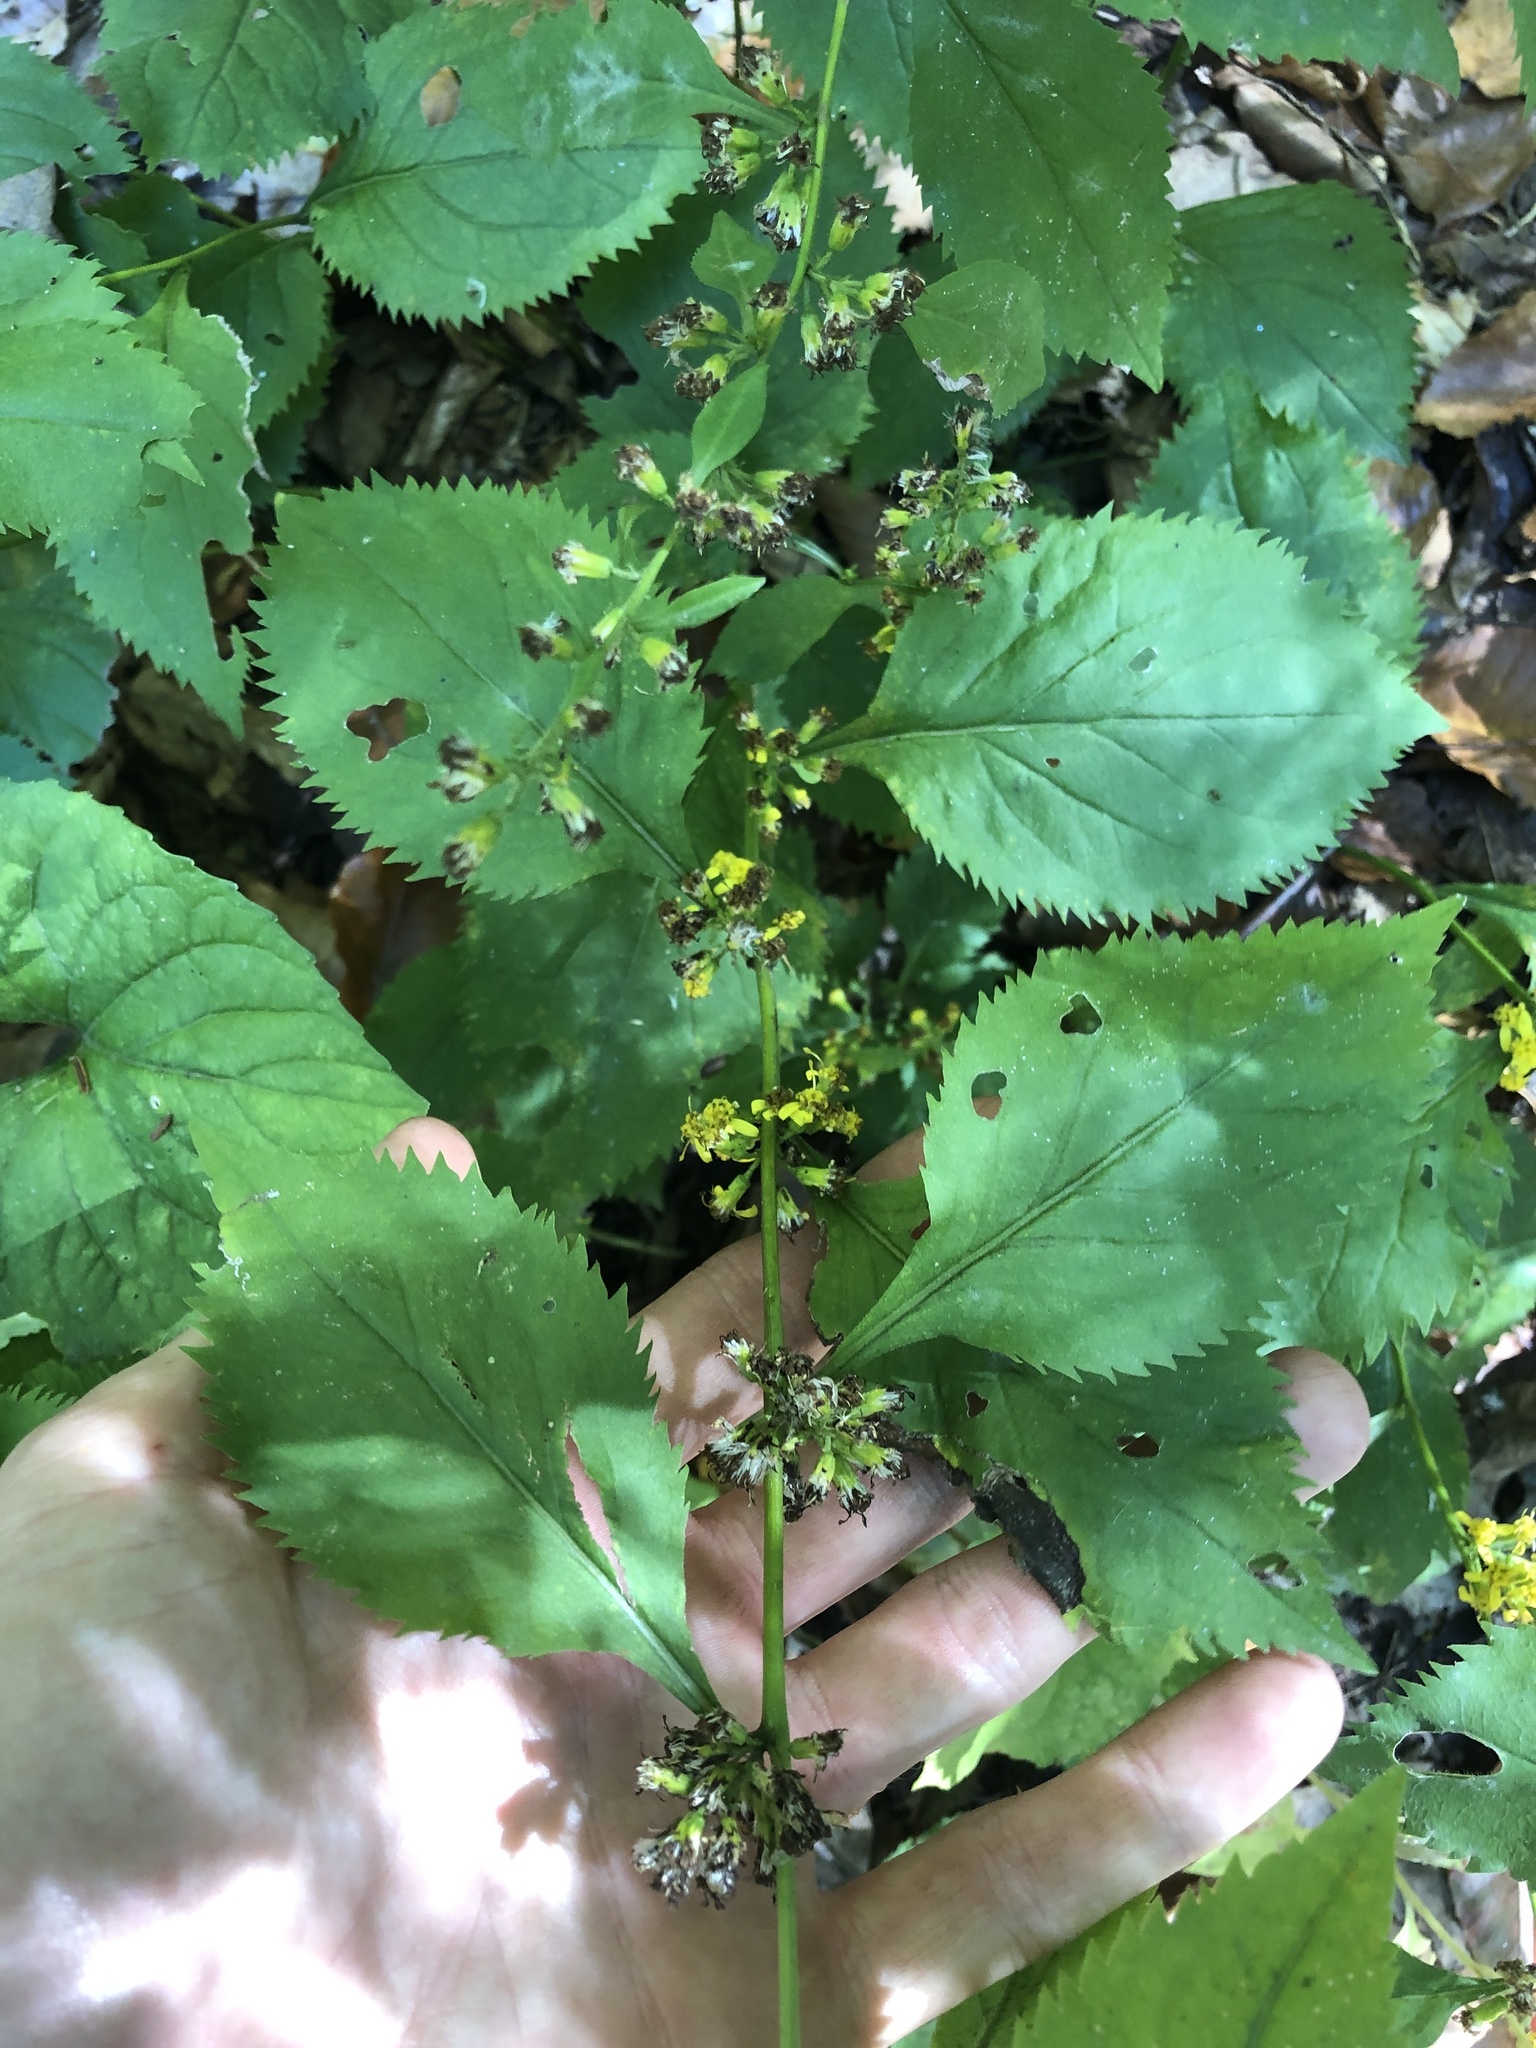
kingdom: Plantae
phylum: Tracheophyta
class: Magnoliopsida
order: Asterales
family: Asteraceae
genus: Solidago
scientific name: Solidago flexicaulis
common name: Zig-zag goldenrod
